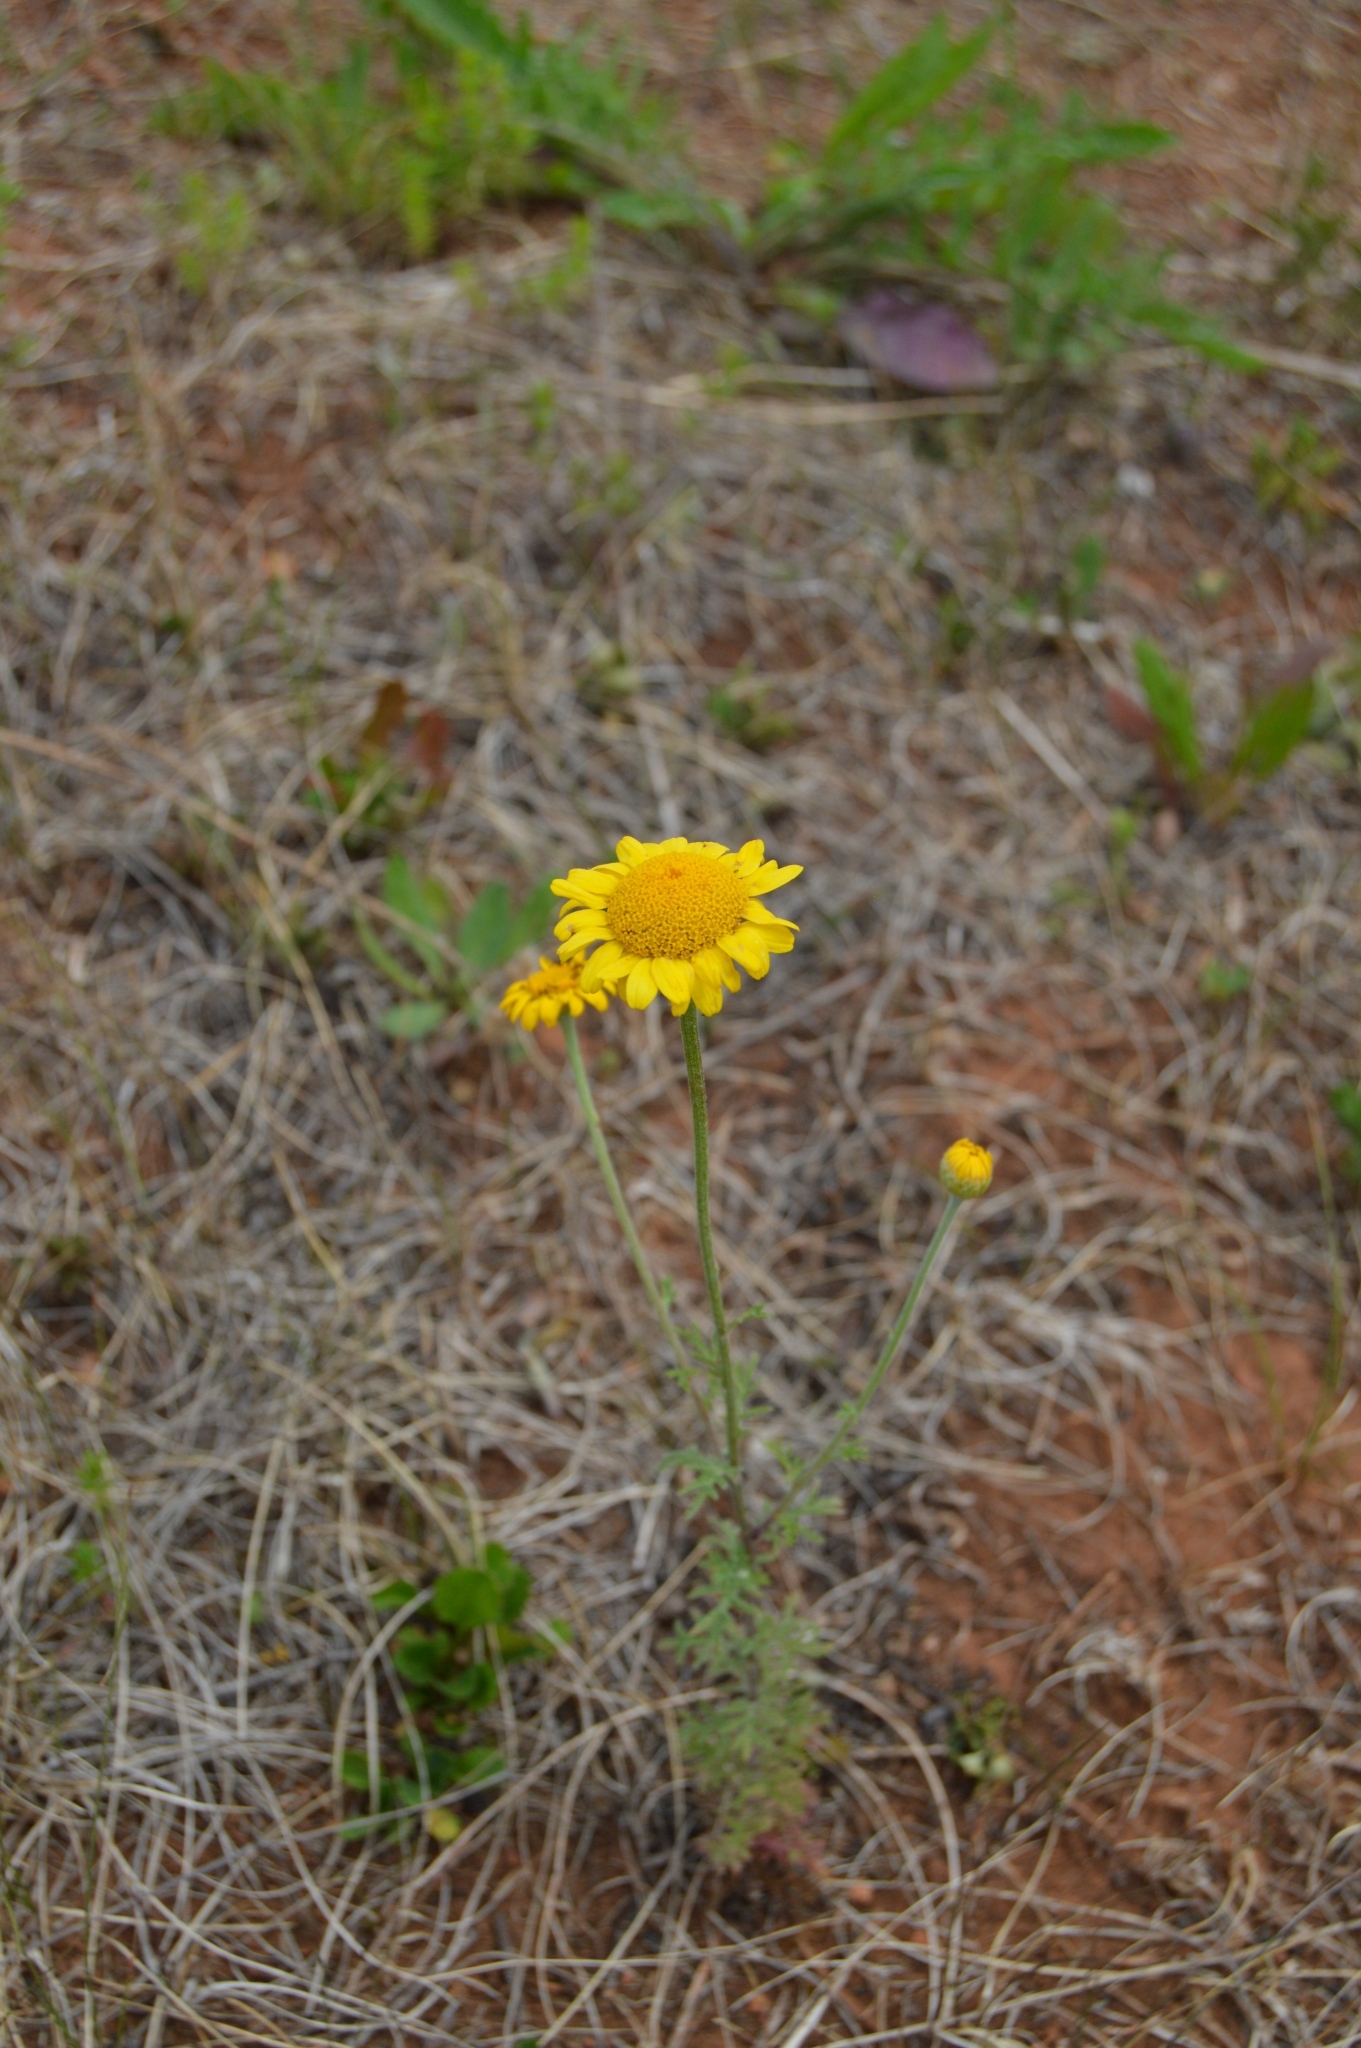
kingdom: Plantae
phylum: Tracheophyta
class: Magnoliopsida
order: Asterales
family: Asteraceae
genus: Cota
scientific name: Cota tinctoria
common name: Golden chamomile
